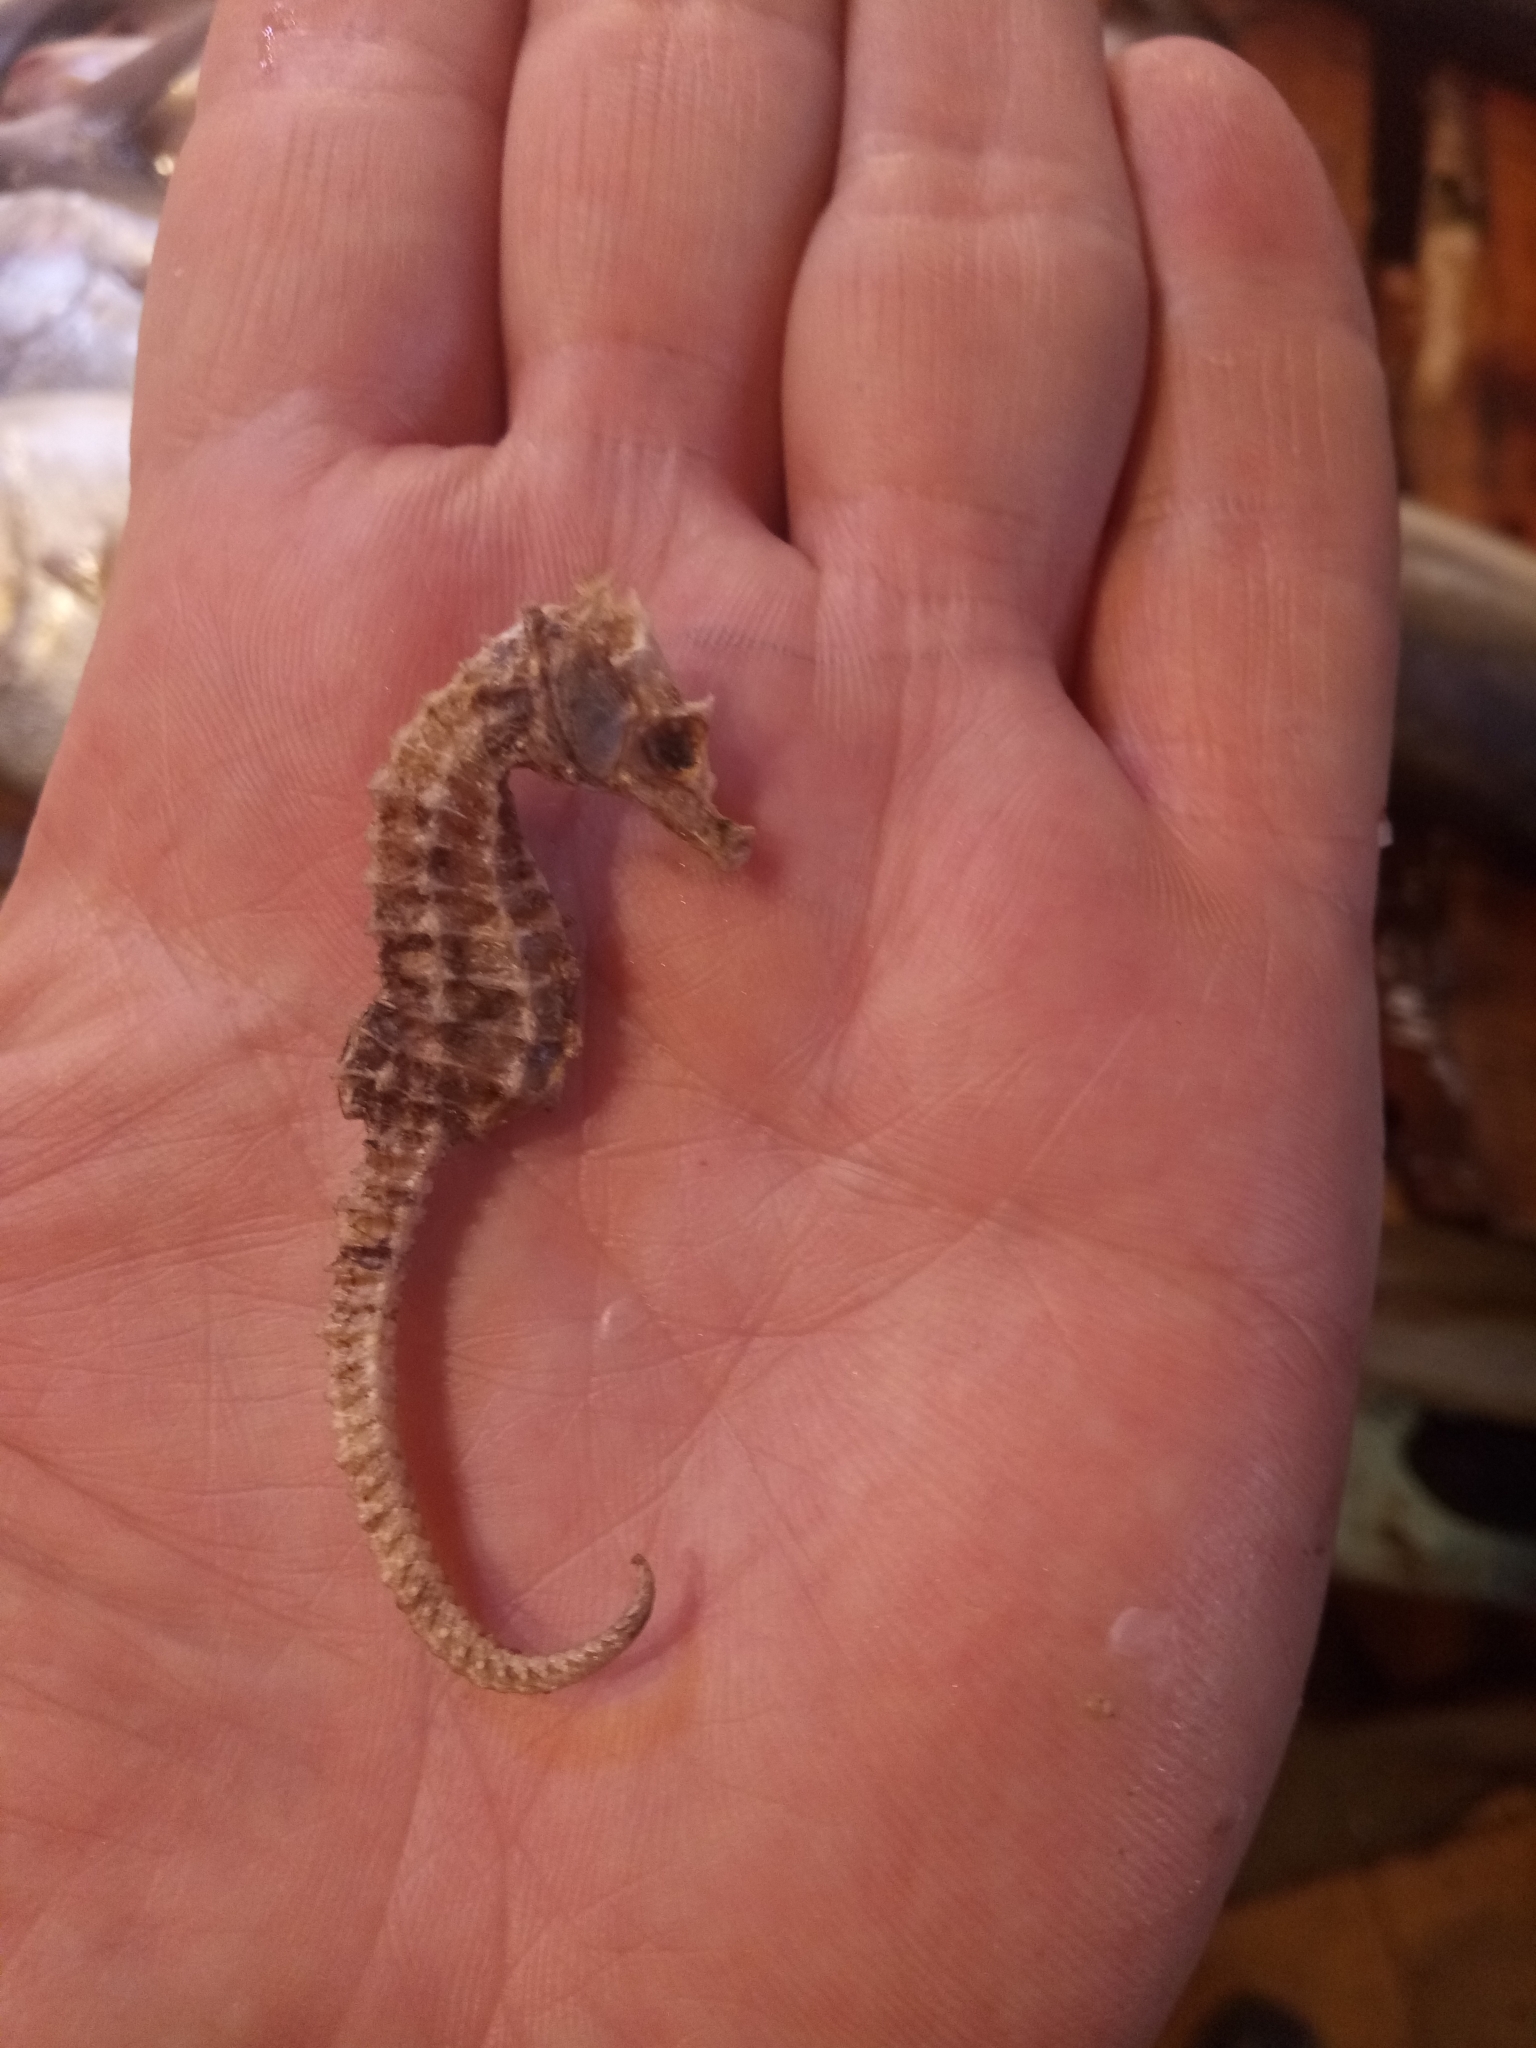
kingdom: Animalia
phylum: Chordata
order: Syngnathiformes
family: Syngnathidae
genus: Hippocampus
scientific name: Hippocampus hippocampus
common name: Short-snouted seahorse
